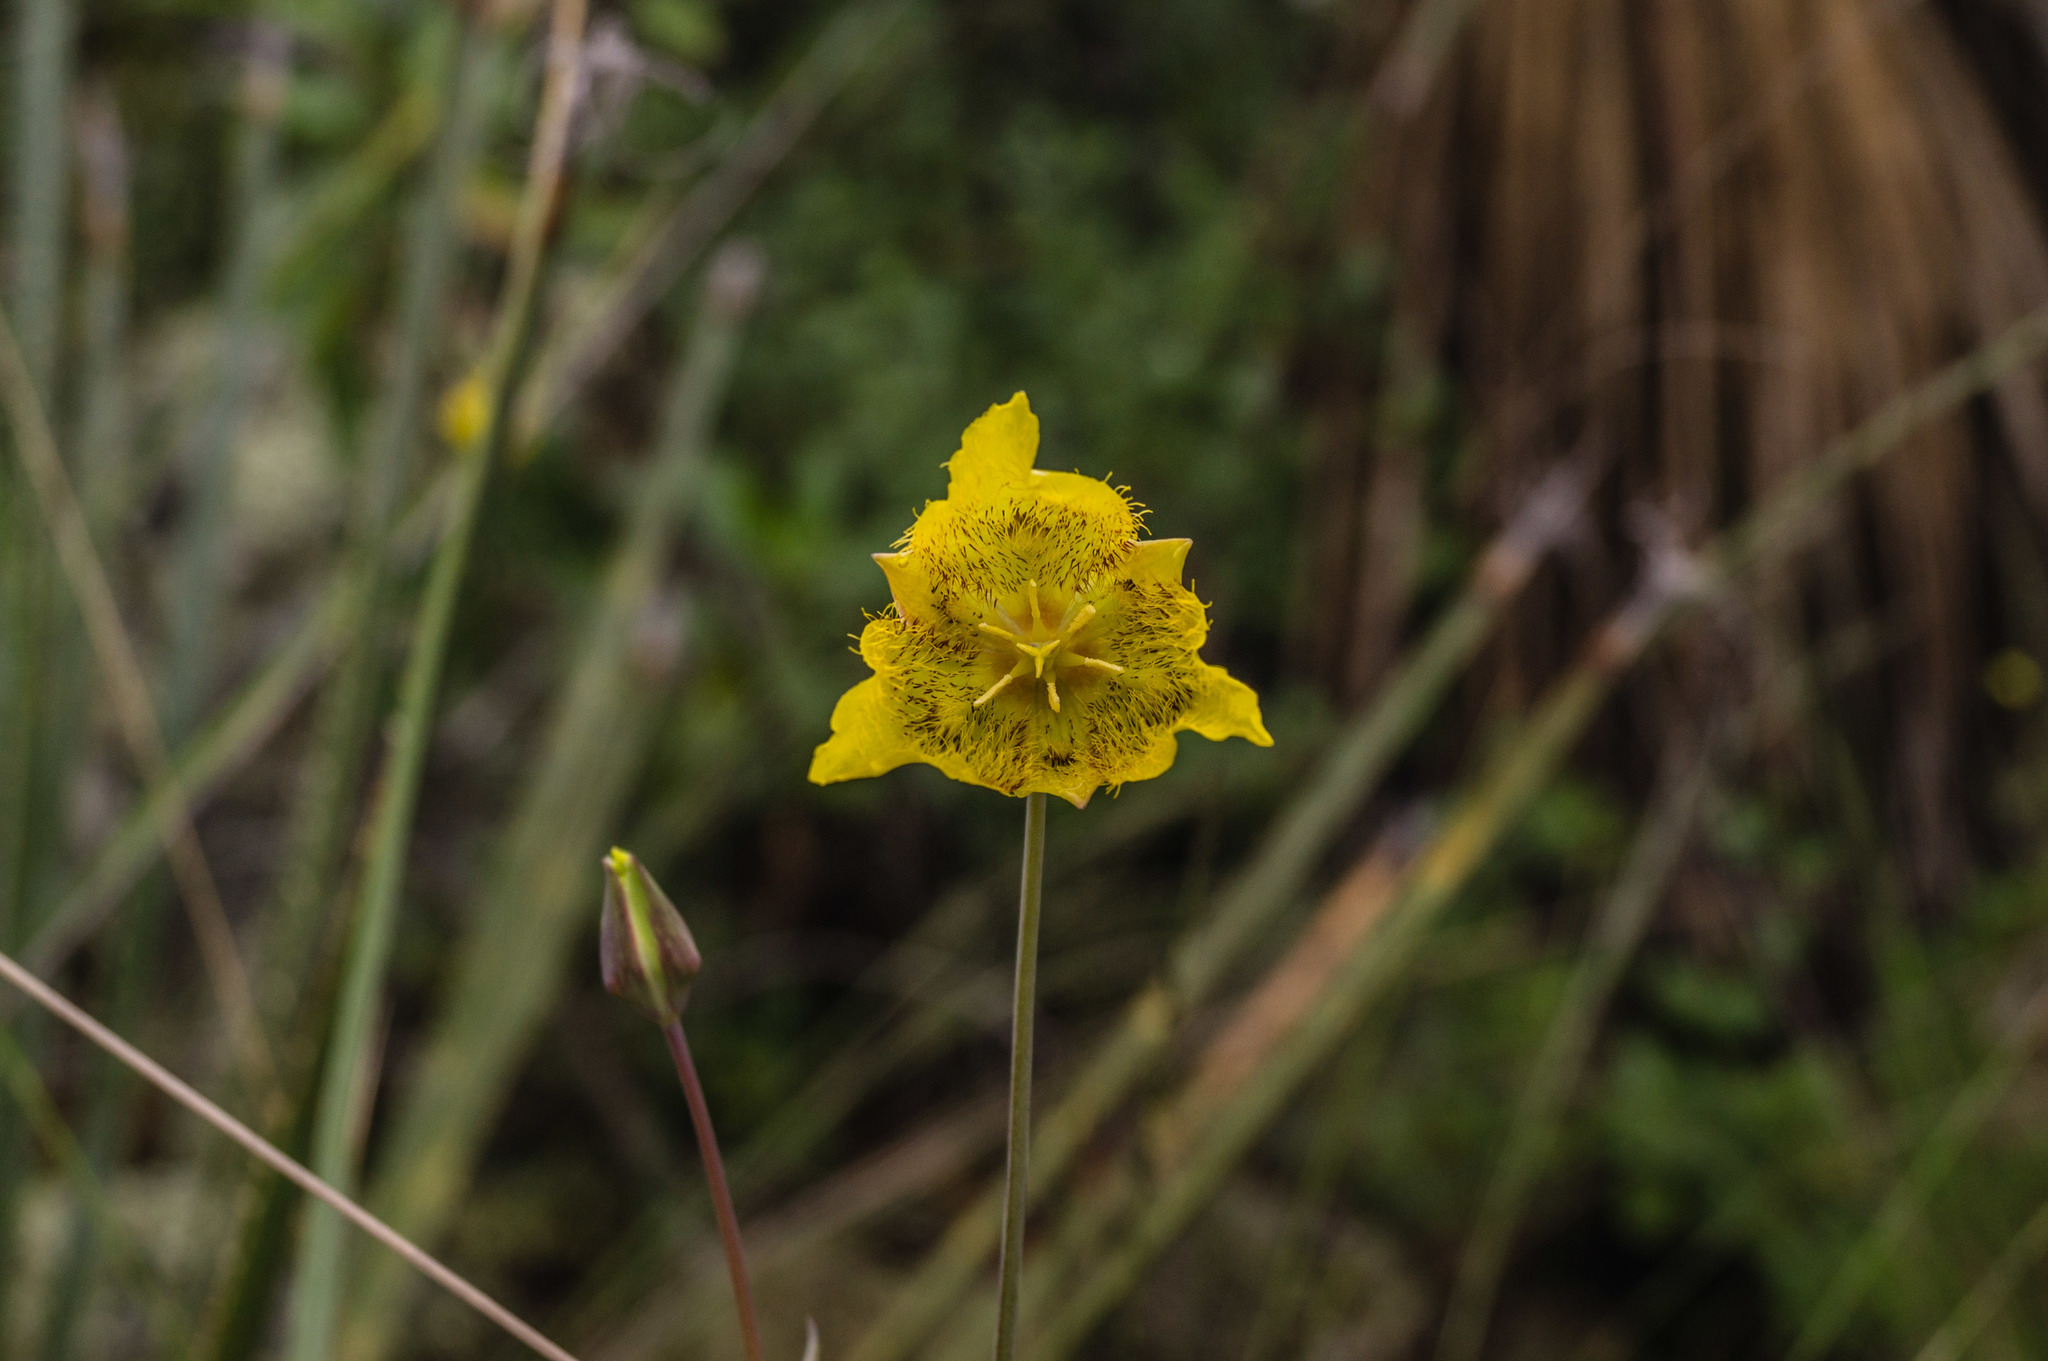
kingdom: Plantae
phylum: Tracheophyta
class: Liliopsida
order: Liliales
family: Liliaceae
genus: Calochortus
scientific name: Calochortus barbatus
